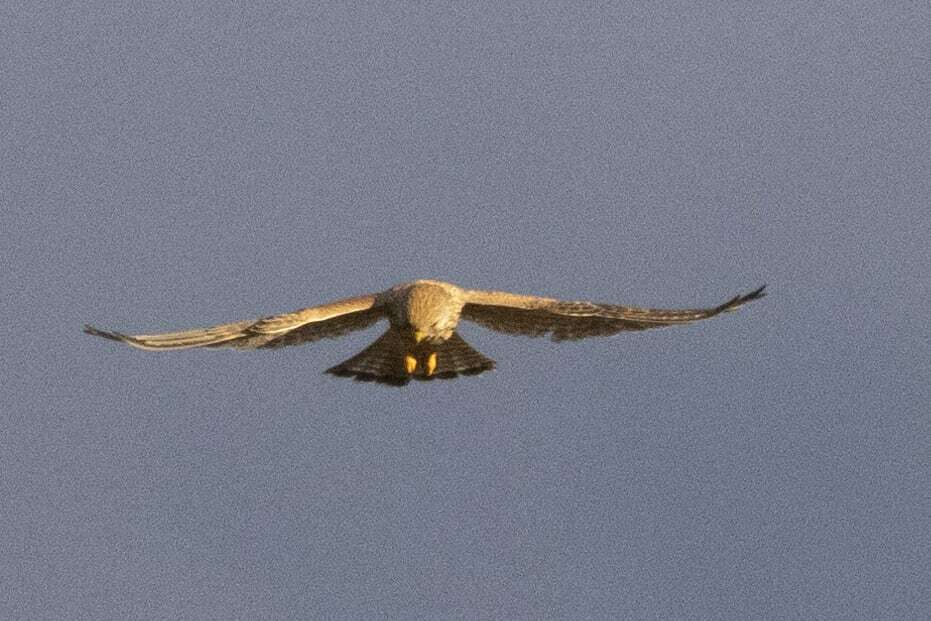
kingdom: Animalia
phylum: Chordata
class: Aves
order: Falconiformes
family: Falconidae
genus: Falco
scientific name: Falco tinnunculus
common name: Common kestrel
